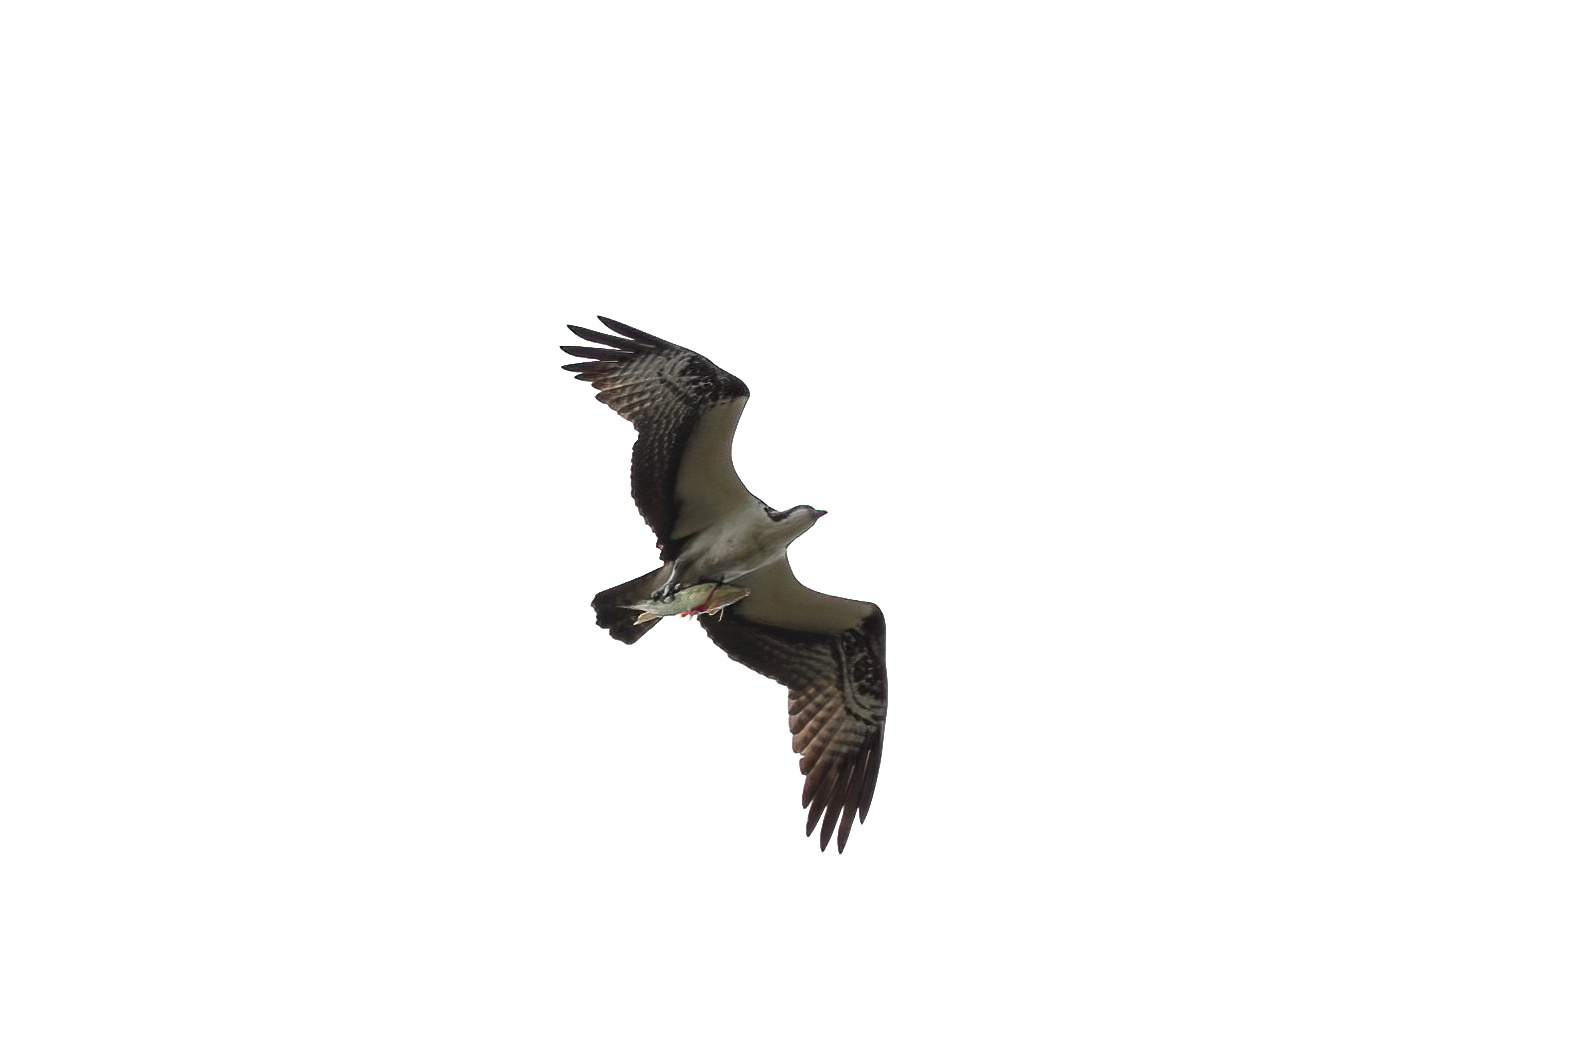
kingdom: Animalia
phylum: Chordata
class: Aves
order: Accipitriformes
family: Pandionidae
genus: Pandion
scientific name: Pandion haliaetus
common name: Osprey
